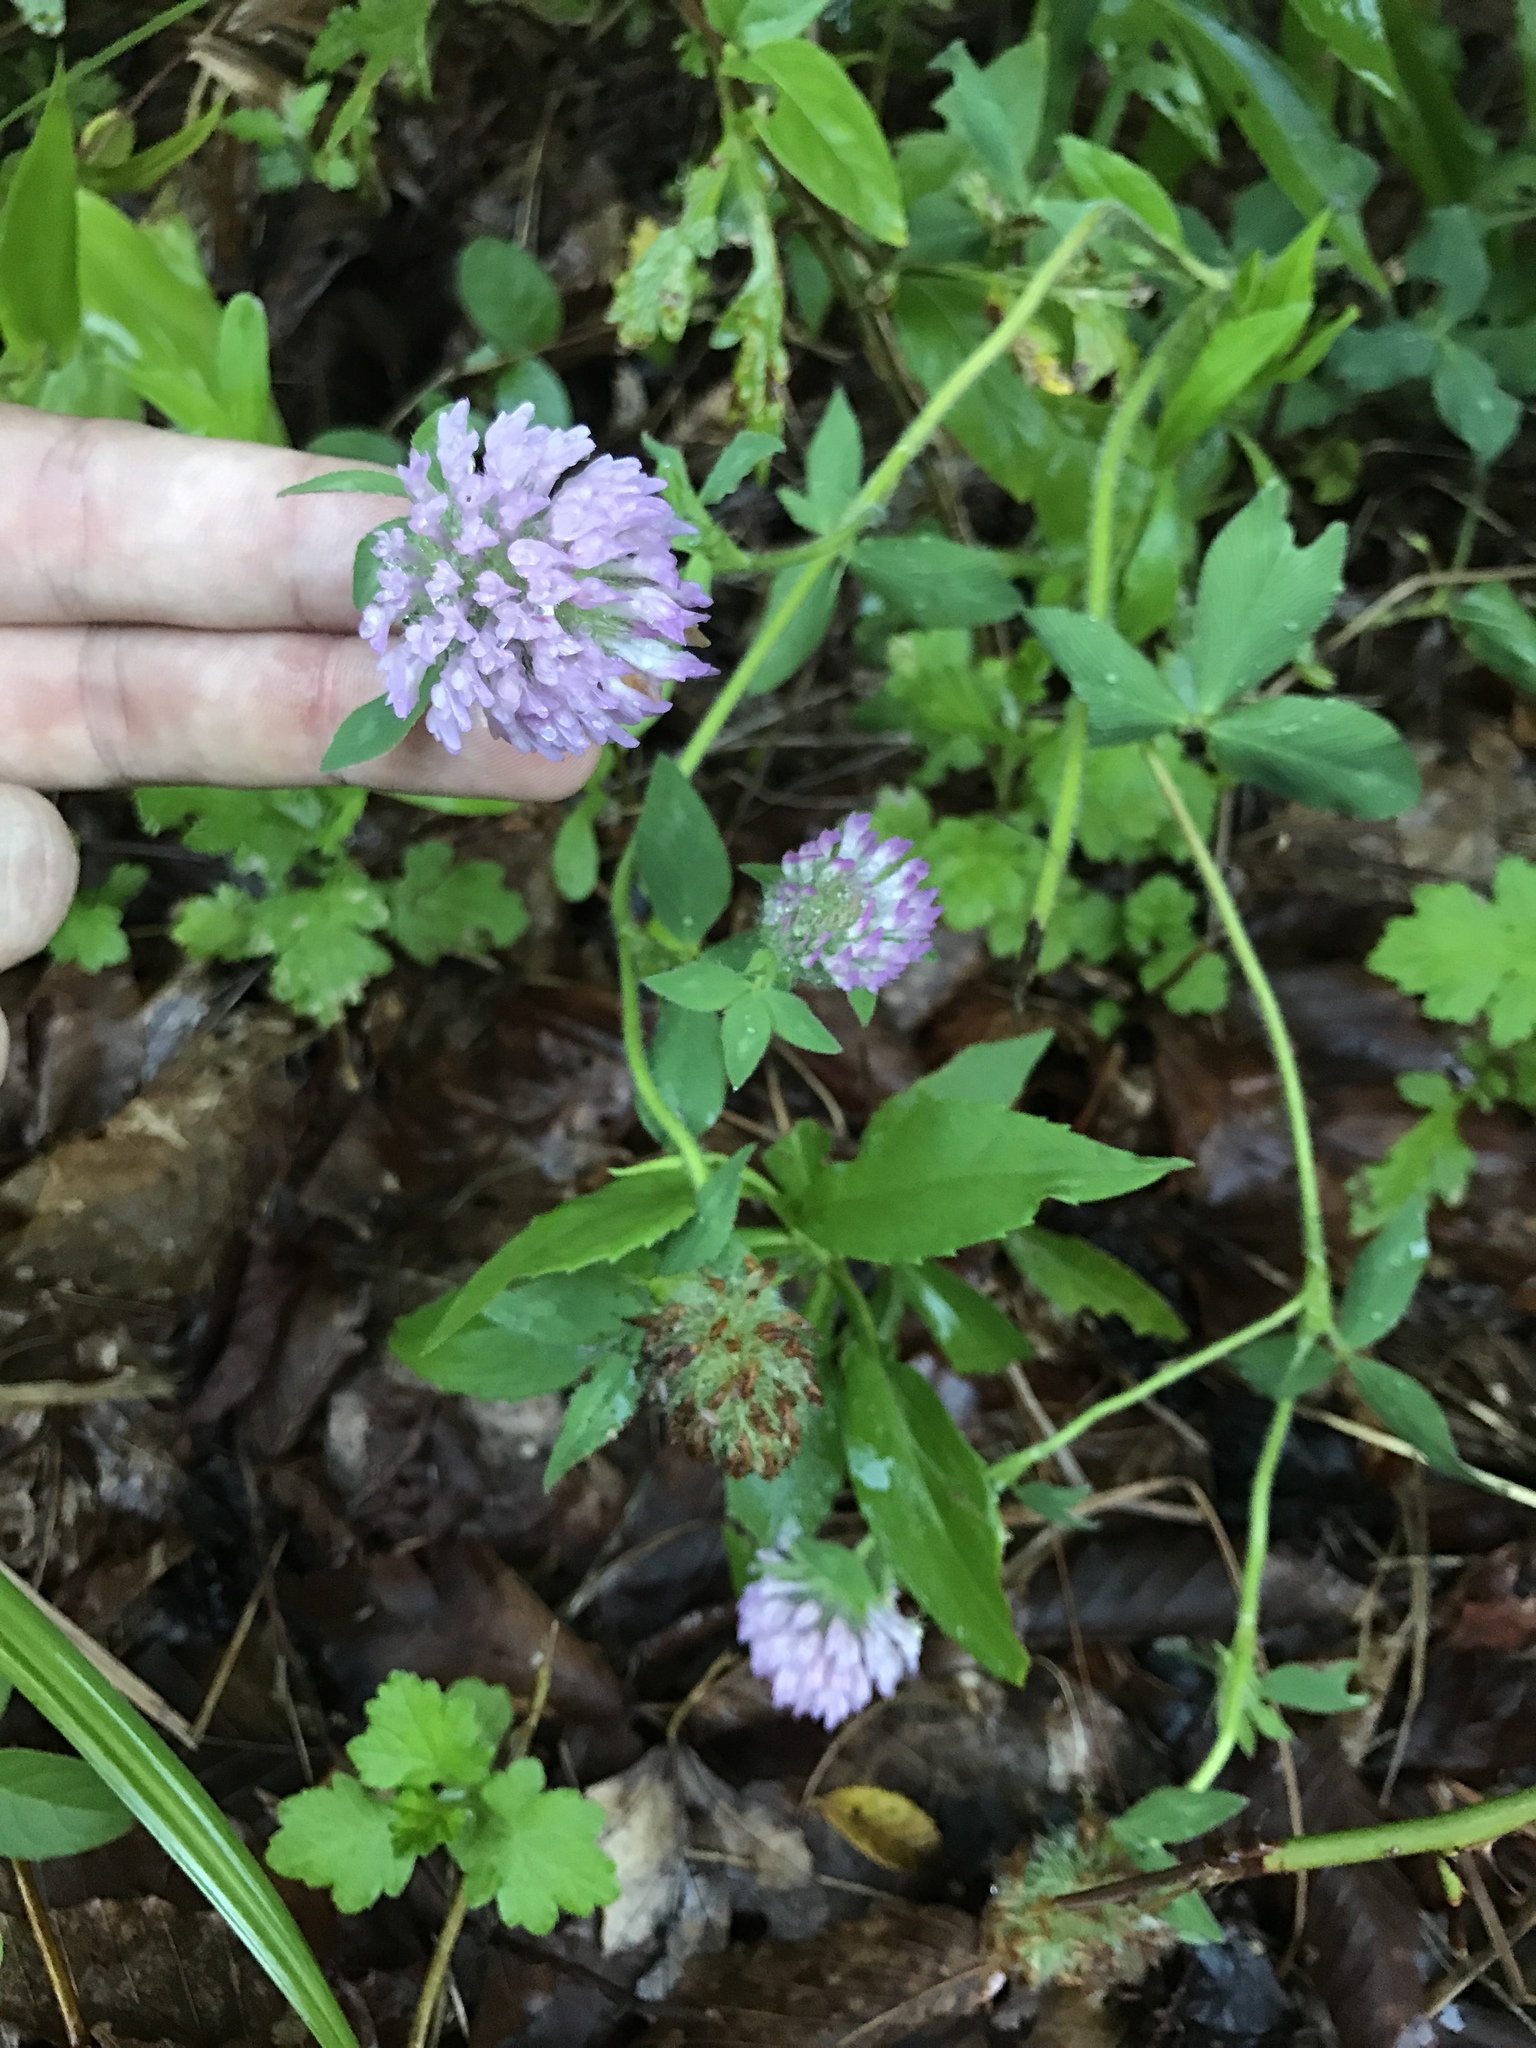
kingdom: Plantae
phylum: Tracheophyta
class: Magnoliopsida
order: Fabales
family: Fabaceae
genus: Trifolium
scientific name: Trifolium pratense
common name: Red clover
